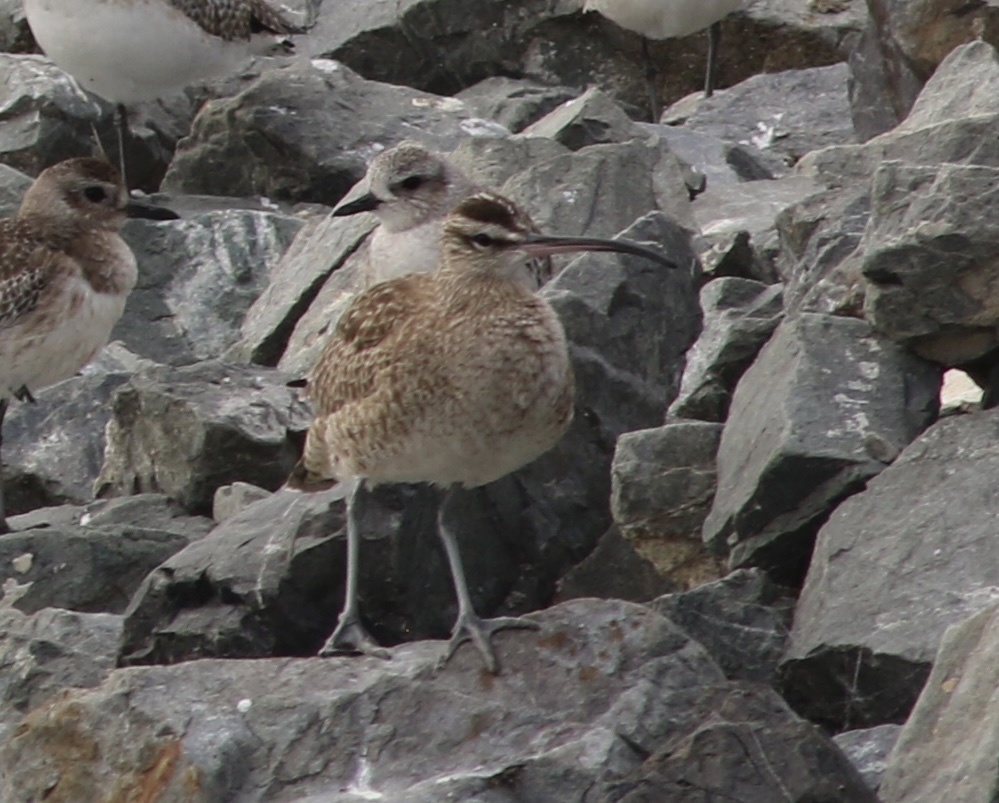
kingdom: Animalia
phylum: Chordata
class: Aves
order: Charadriiformes
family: Scolopacidae
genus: Numenius
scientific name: Numenius phaeopus
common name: Whimbrel
